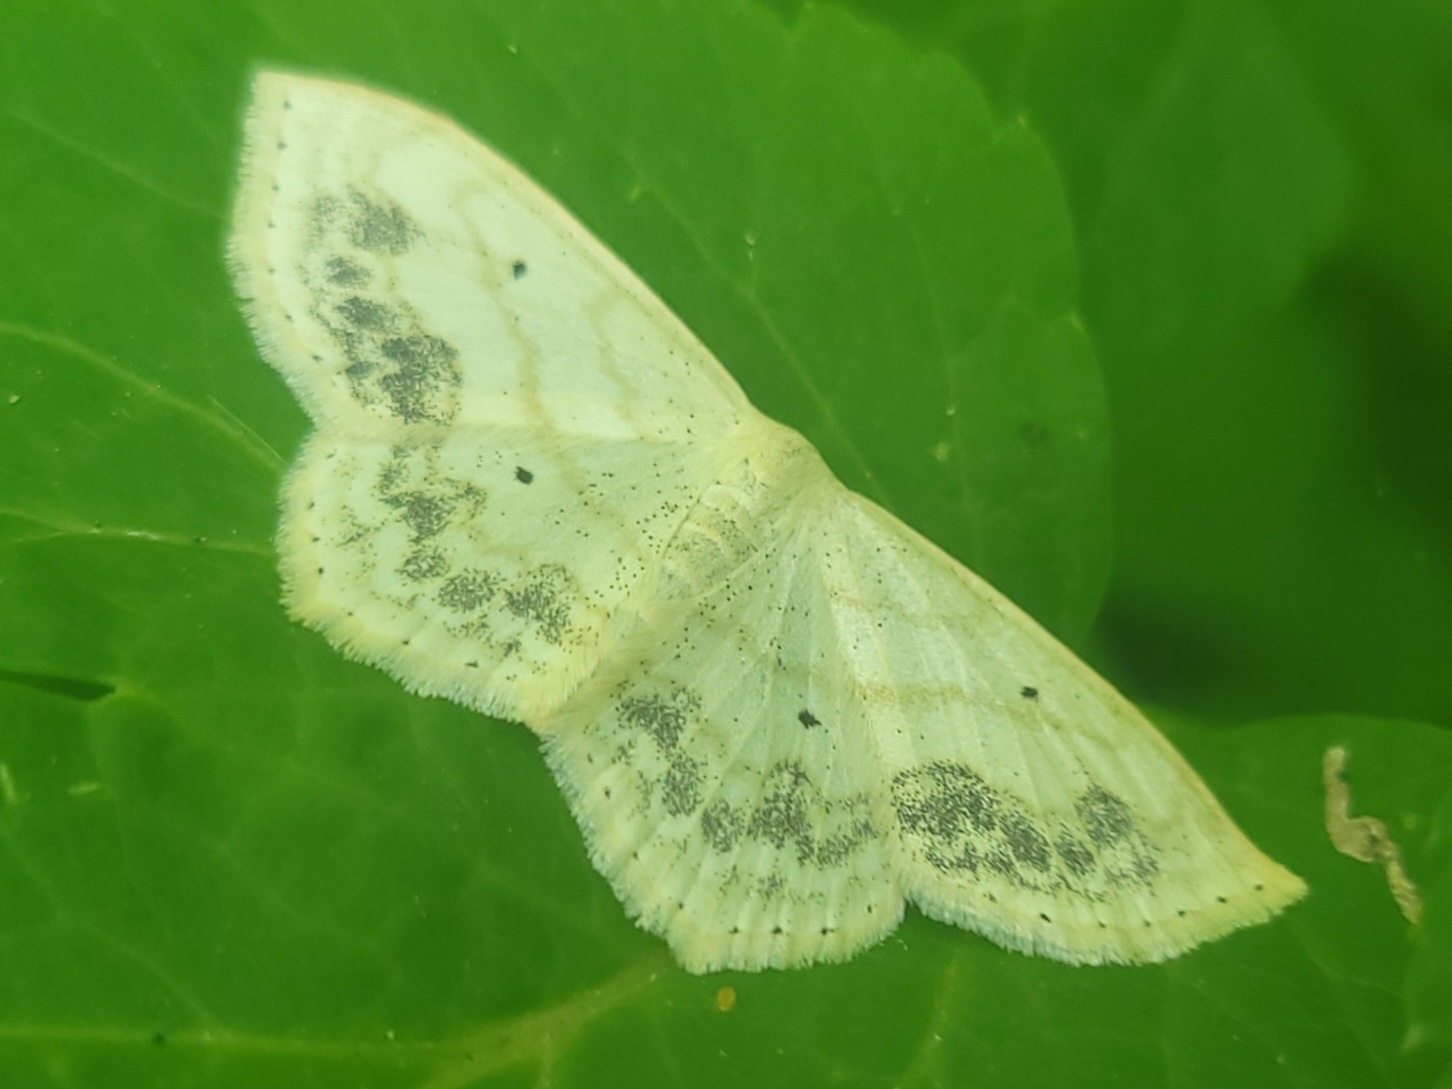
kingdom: Animalia
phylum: Arthropoda
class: Insecta
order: Lepidoptera
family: Geometridae
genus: Scopula
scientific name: Scopula limboundata
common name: Large lace border
